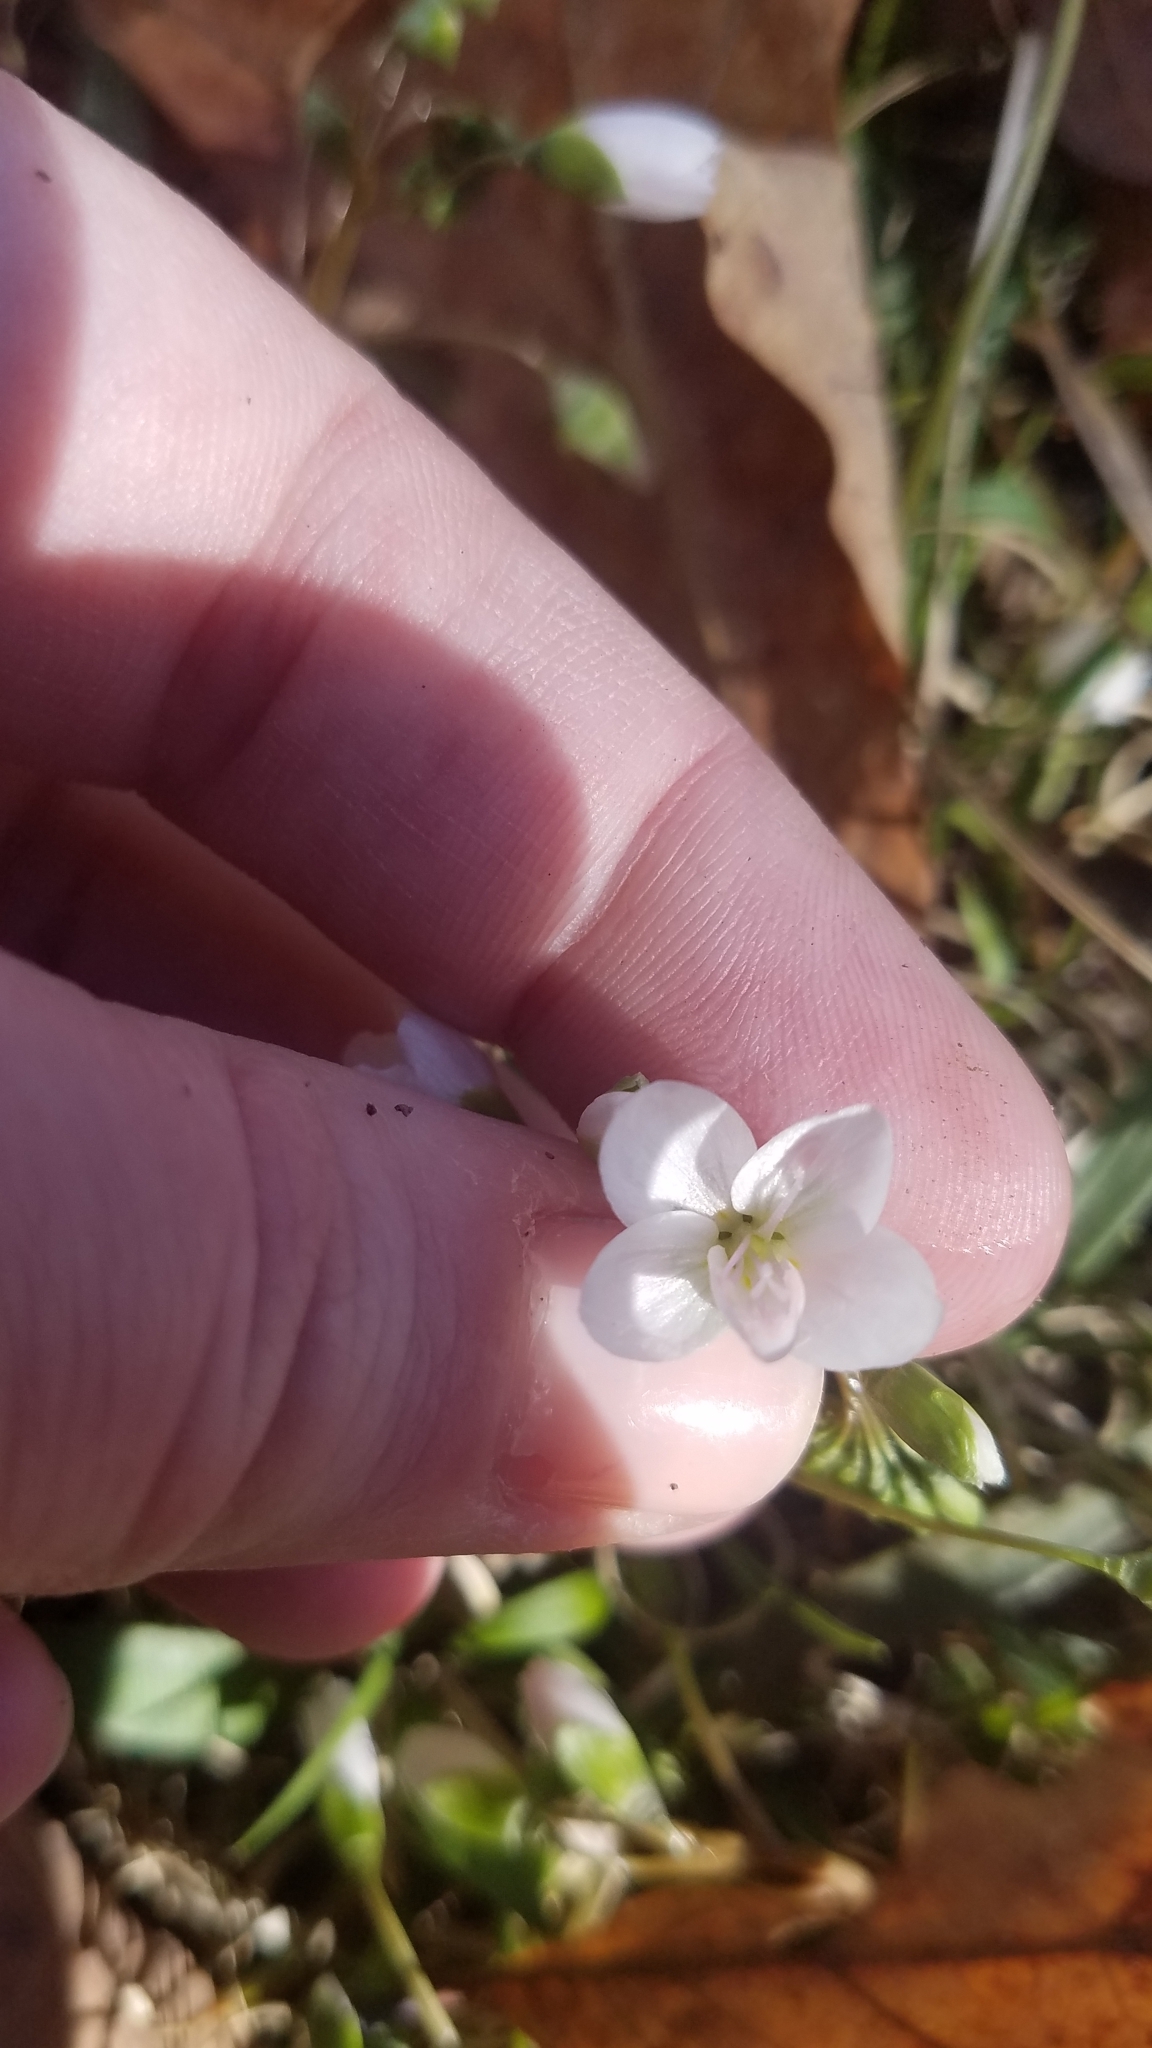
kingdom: Plantae
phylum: Tracheophyta
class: Magnoliopsida
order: Caryophyllales
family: Montiaceae
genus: Claytonia
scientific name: Claytonia virginica
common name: Virginia springbeauty
